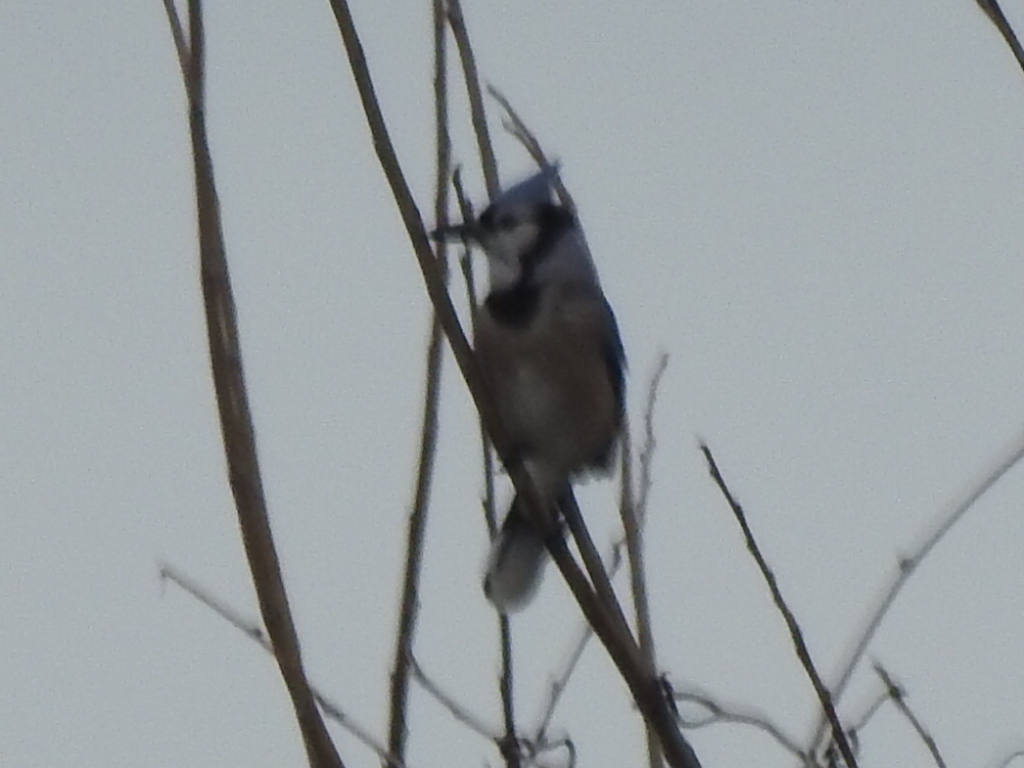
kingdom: Animalia
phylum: Chordata
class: Aves
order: Passeriformes
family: Corvidae
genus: Cyanocitta
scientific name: Cyanocitta cristata
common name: Blue jay
